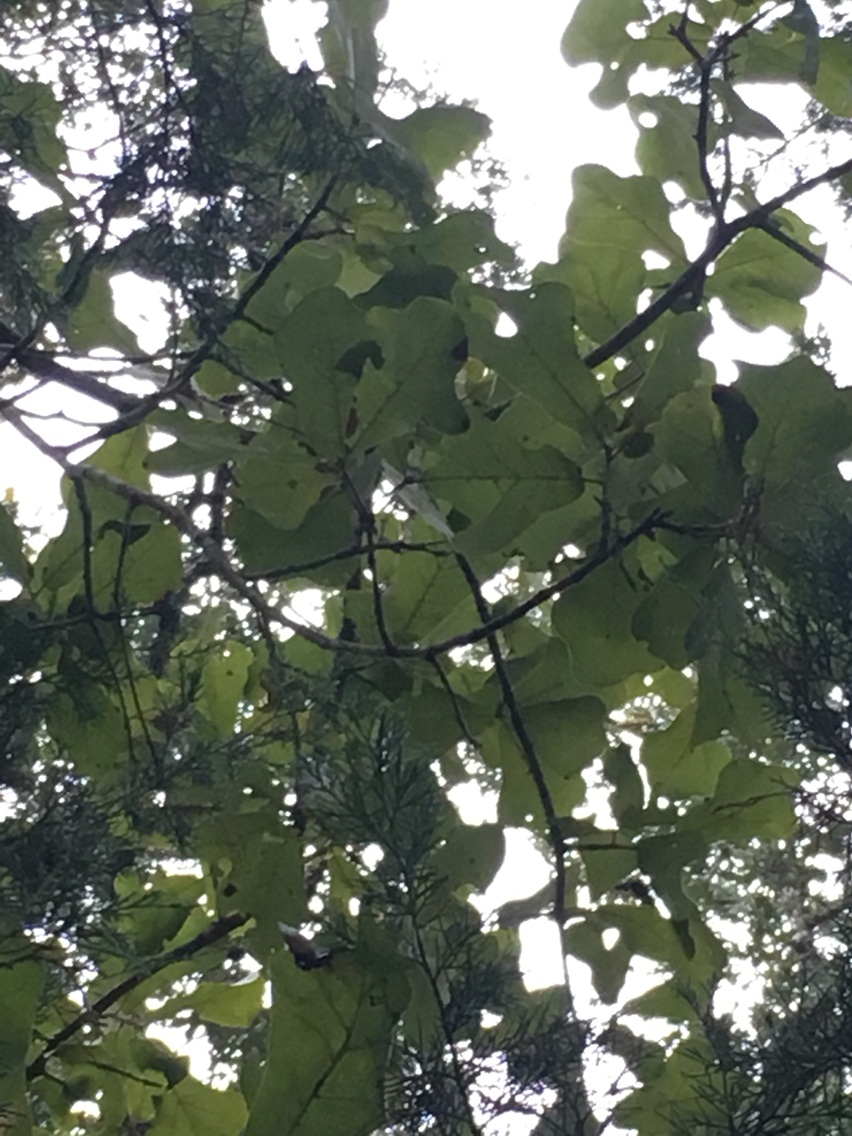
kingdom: Plantae
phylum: Tracheophyta
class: Magnoliopsida
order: Fagales
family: Fagaceae
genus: Quercus
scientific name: Quercus marilandica
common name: Blackjack oak
